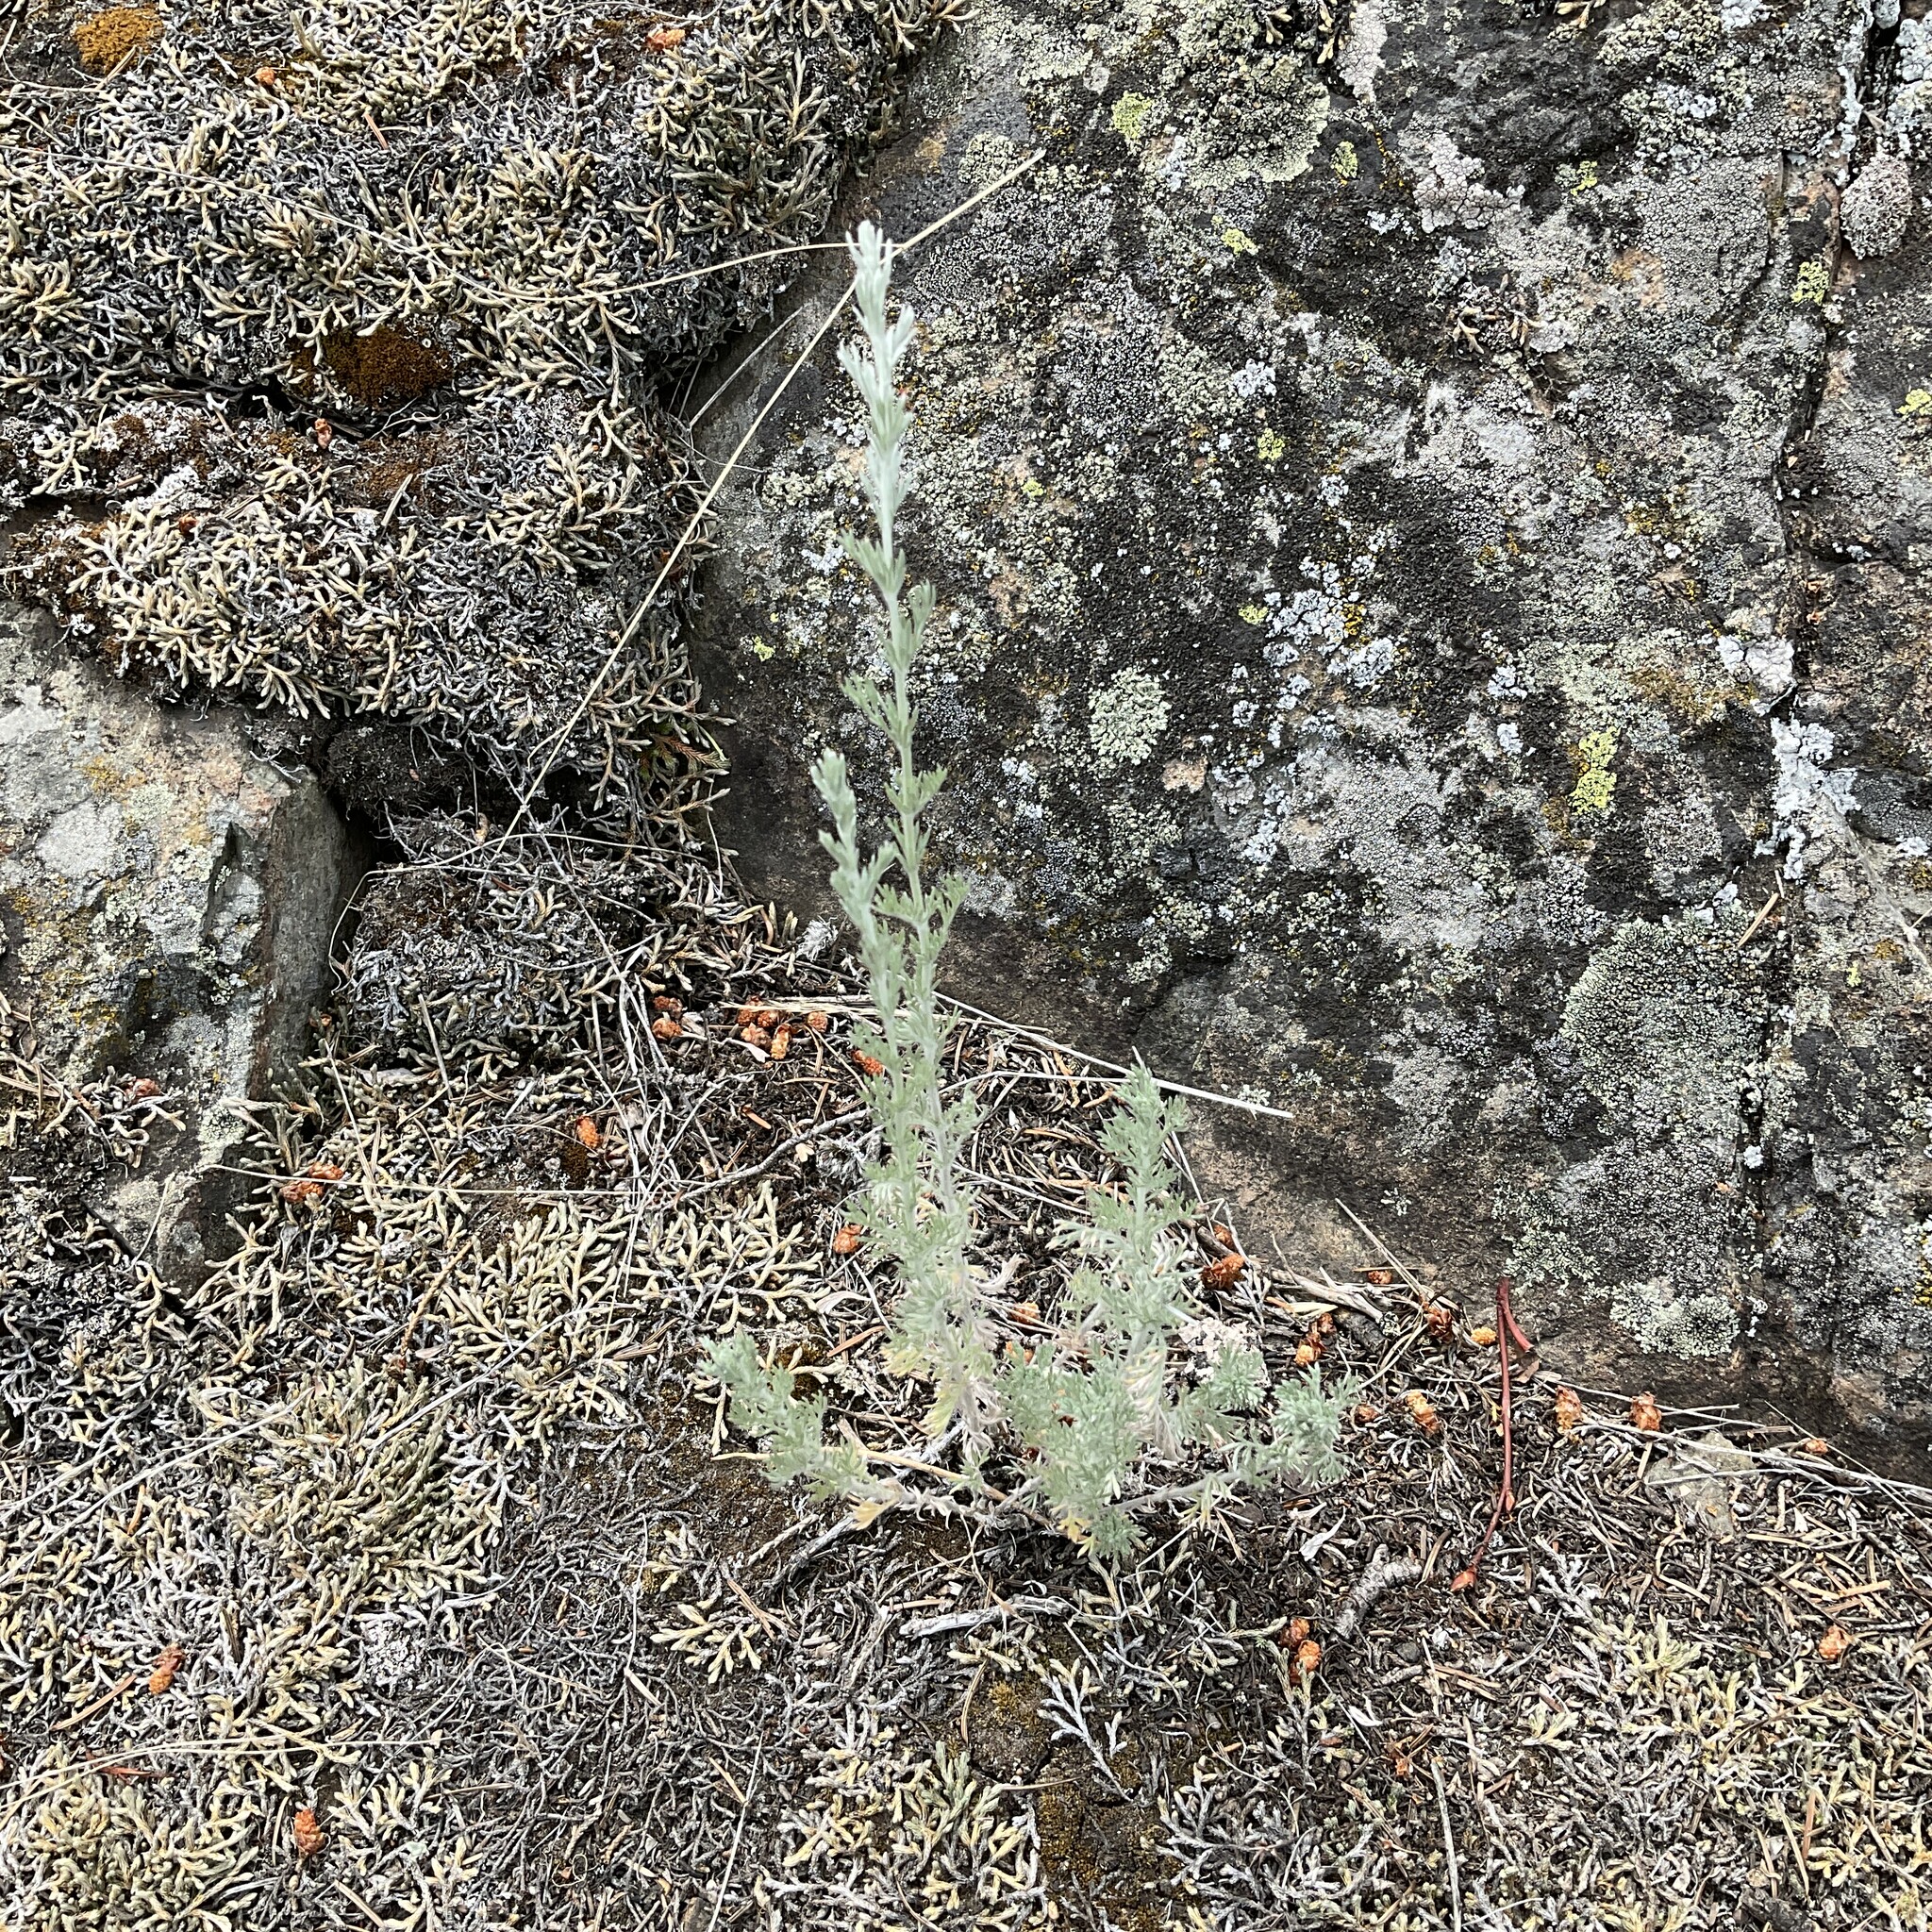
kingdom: Plantae
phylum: Tracheophyta
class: Magnoliopsida
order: Asterales
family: Asteraceae
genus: Artemisia
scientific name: Artemisia frigida
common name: Prairie sagewort
